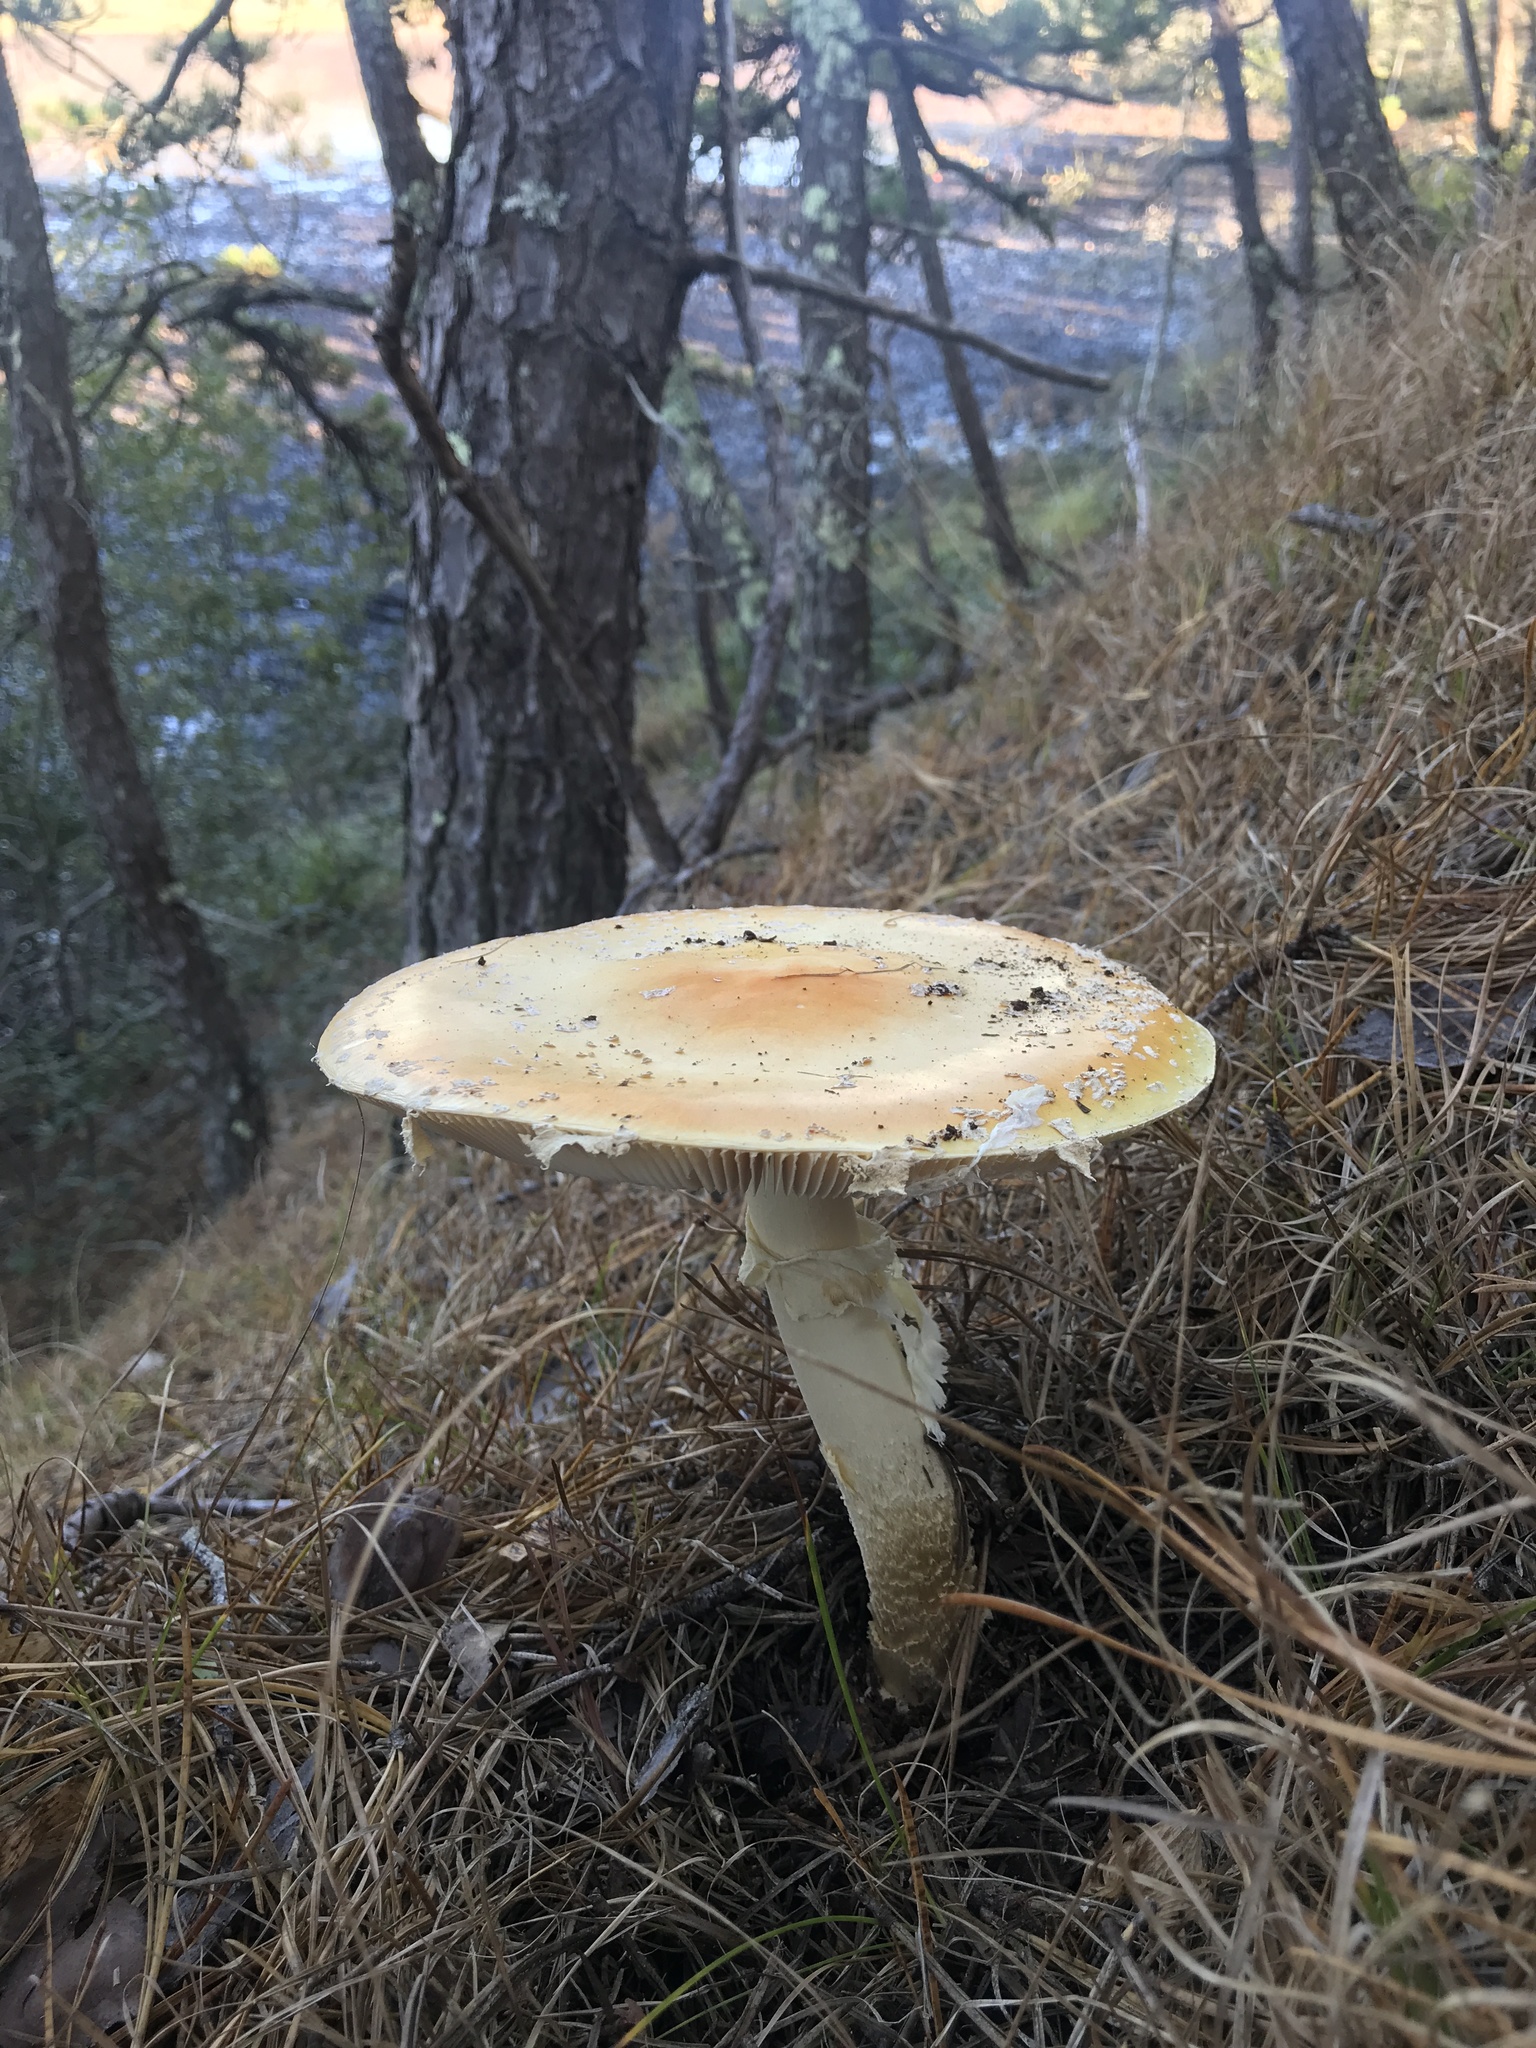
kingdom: Fungi
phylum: Basidiomycota
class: Agaricomycetes
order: Agaricales
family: Amanitaceae
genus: Amanita
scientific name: Amanita muscaria
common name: Fly agaric
